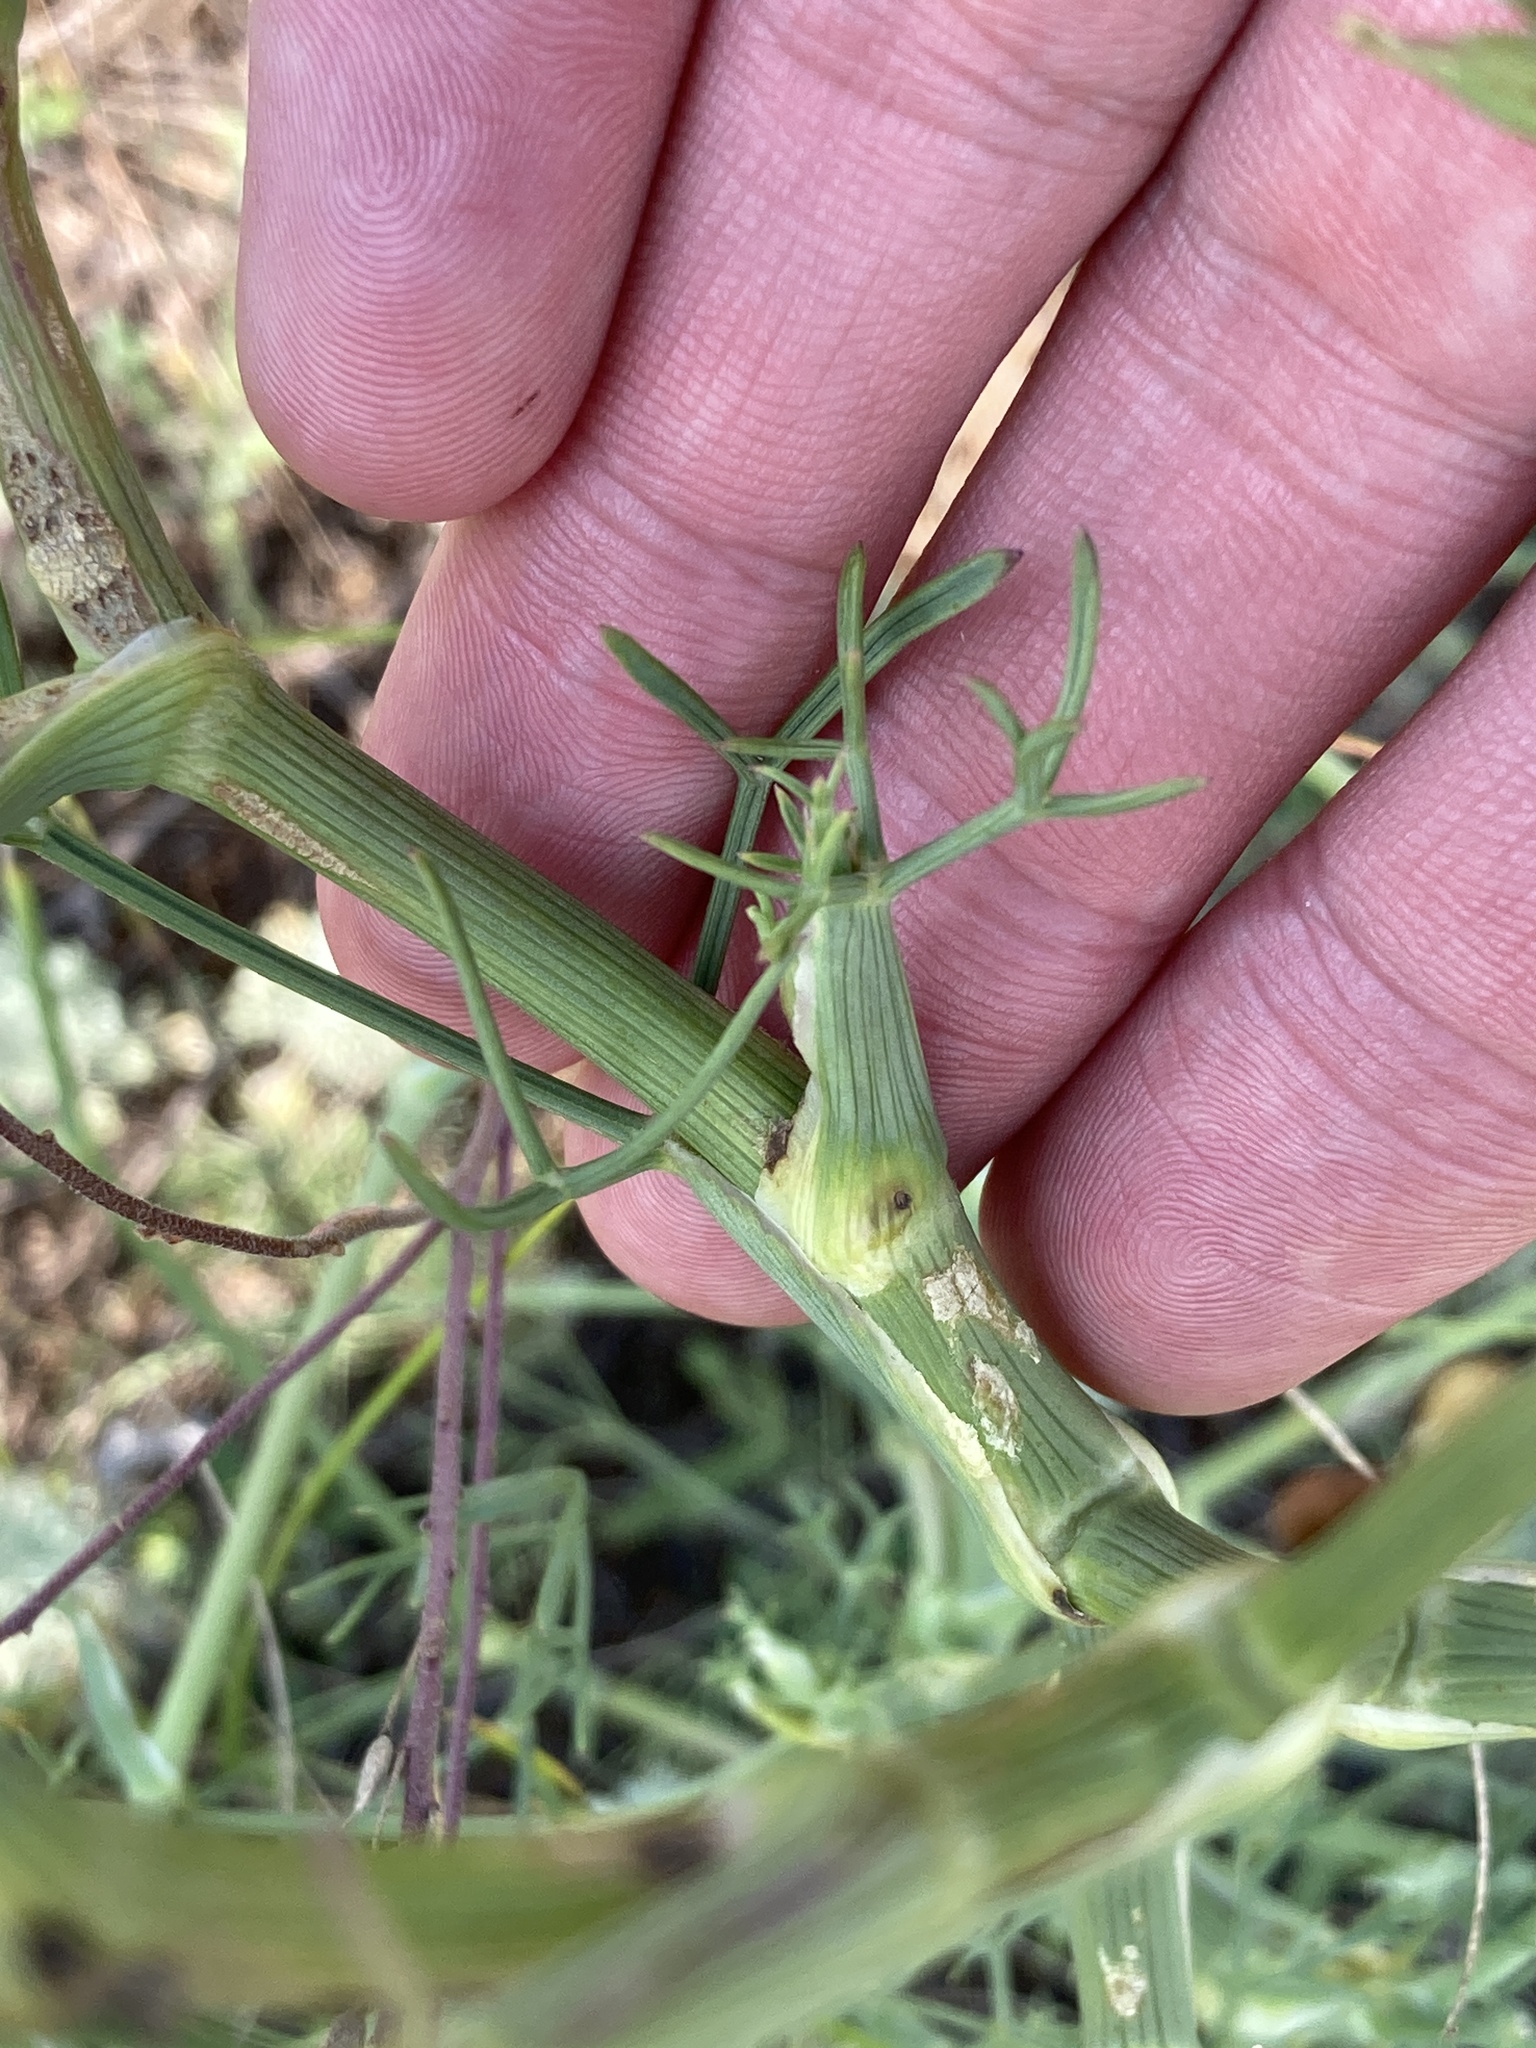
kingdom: Plantae
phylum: Tracheophyta
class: Magnoliopsida
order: Apiales
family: Apiaceae
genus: Seseli
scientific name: Seseli arenarium
